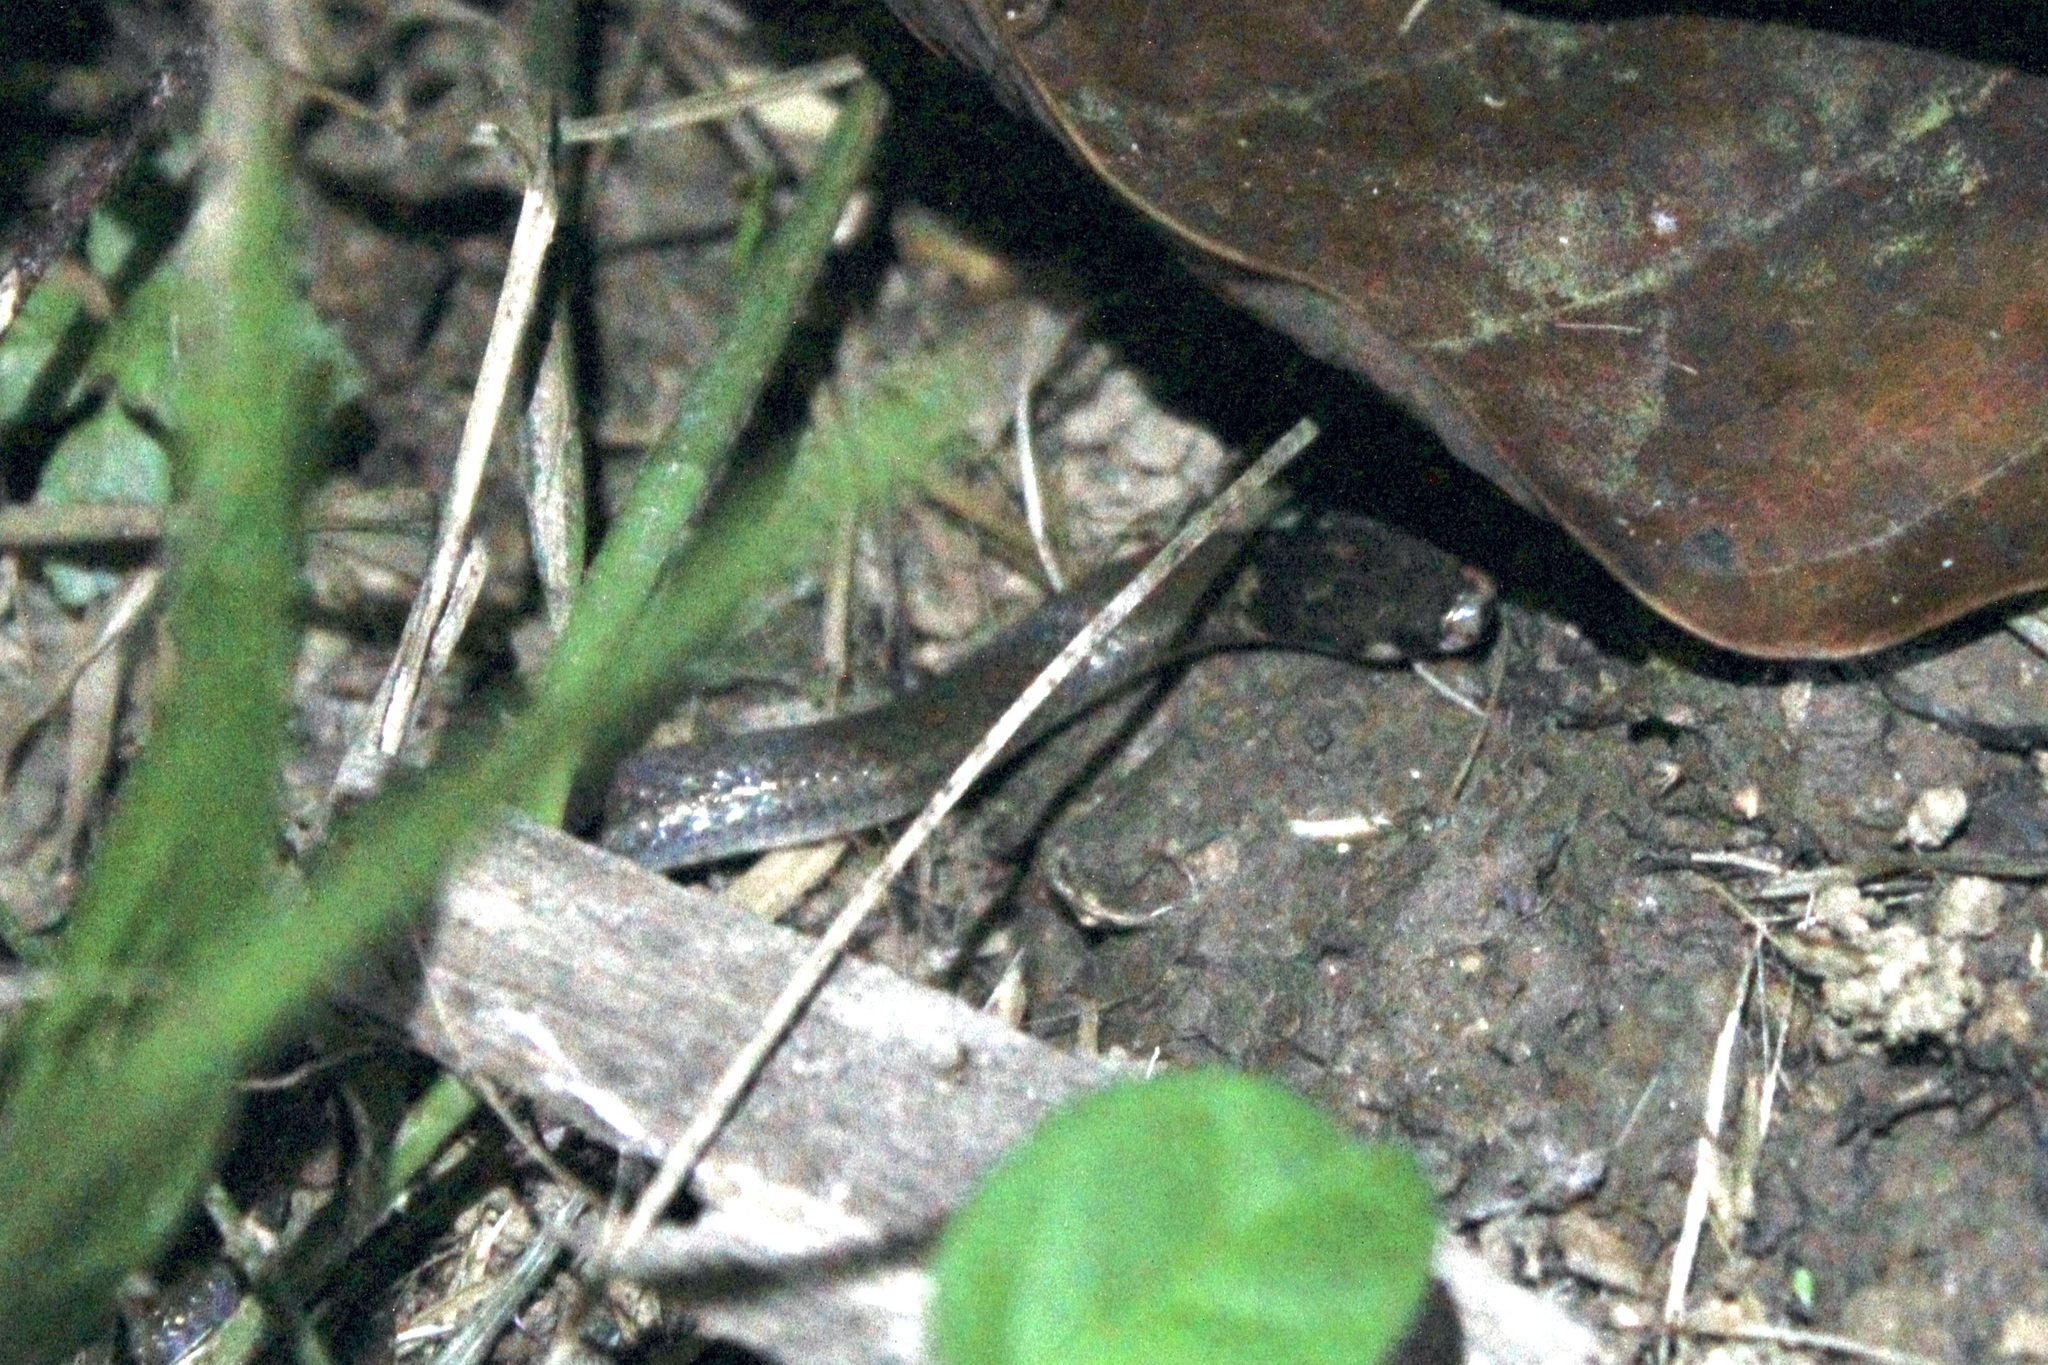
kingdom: Animalia
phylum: Chordata
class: Squamata
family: Colubridae
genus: Tantilla
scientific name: Tantilla melanocephala
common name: Black-headed snake
